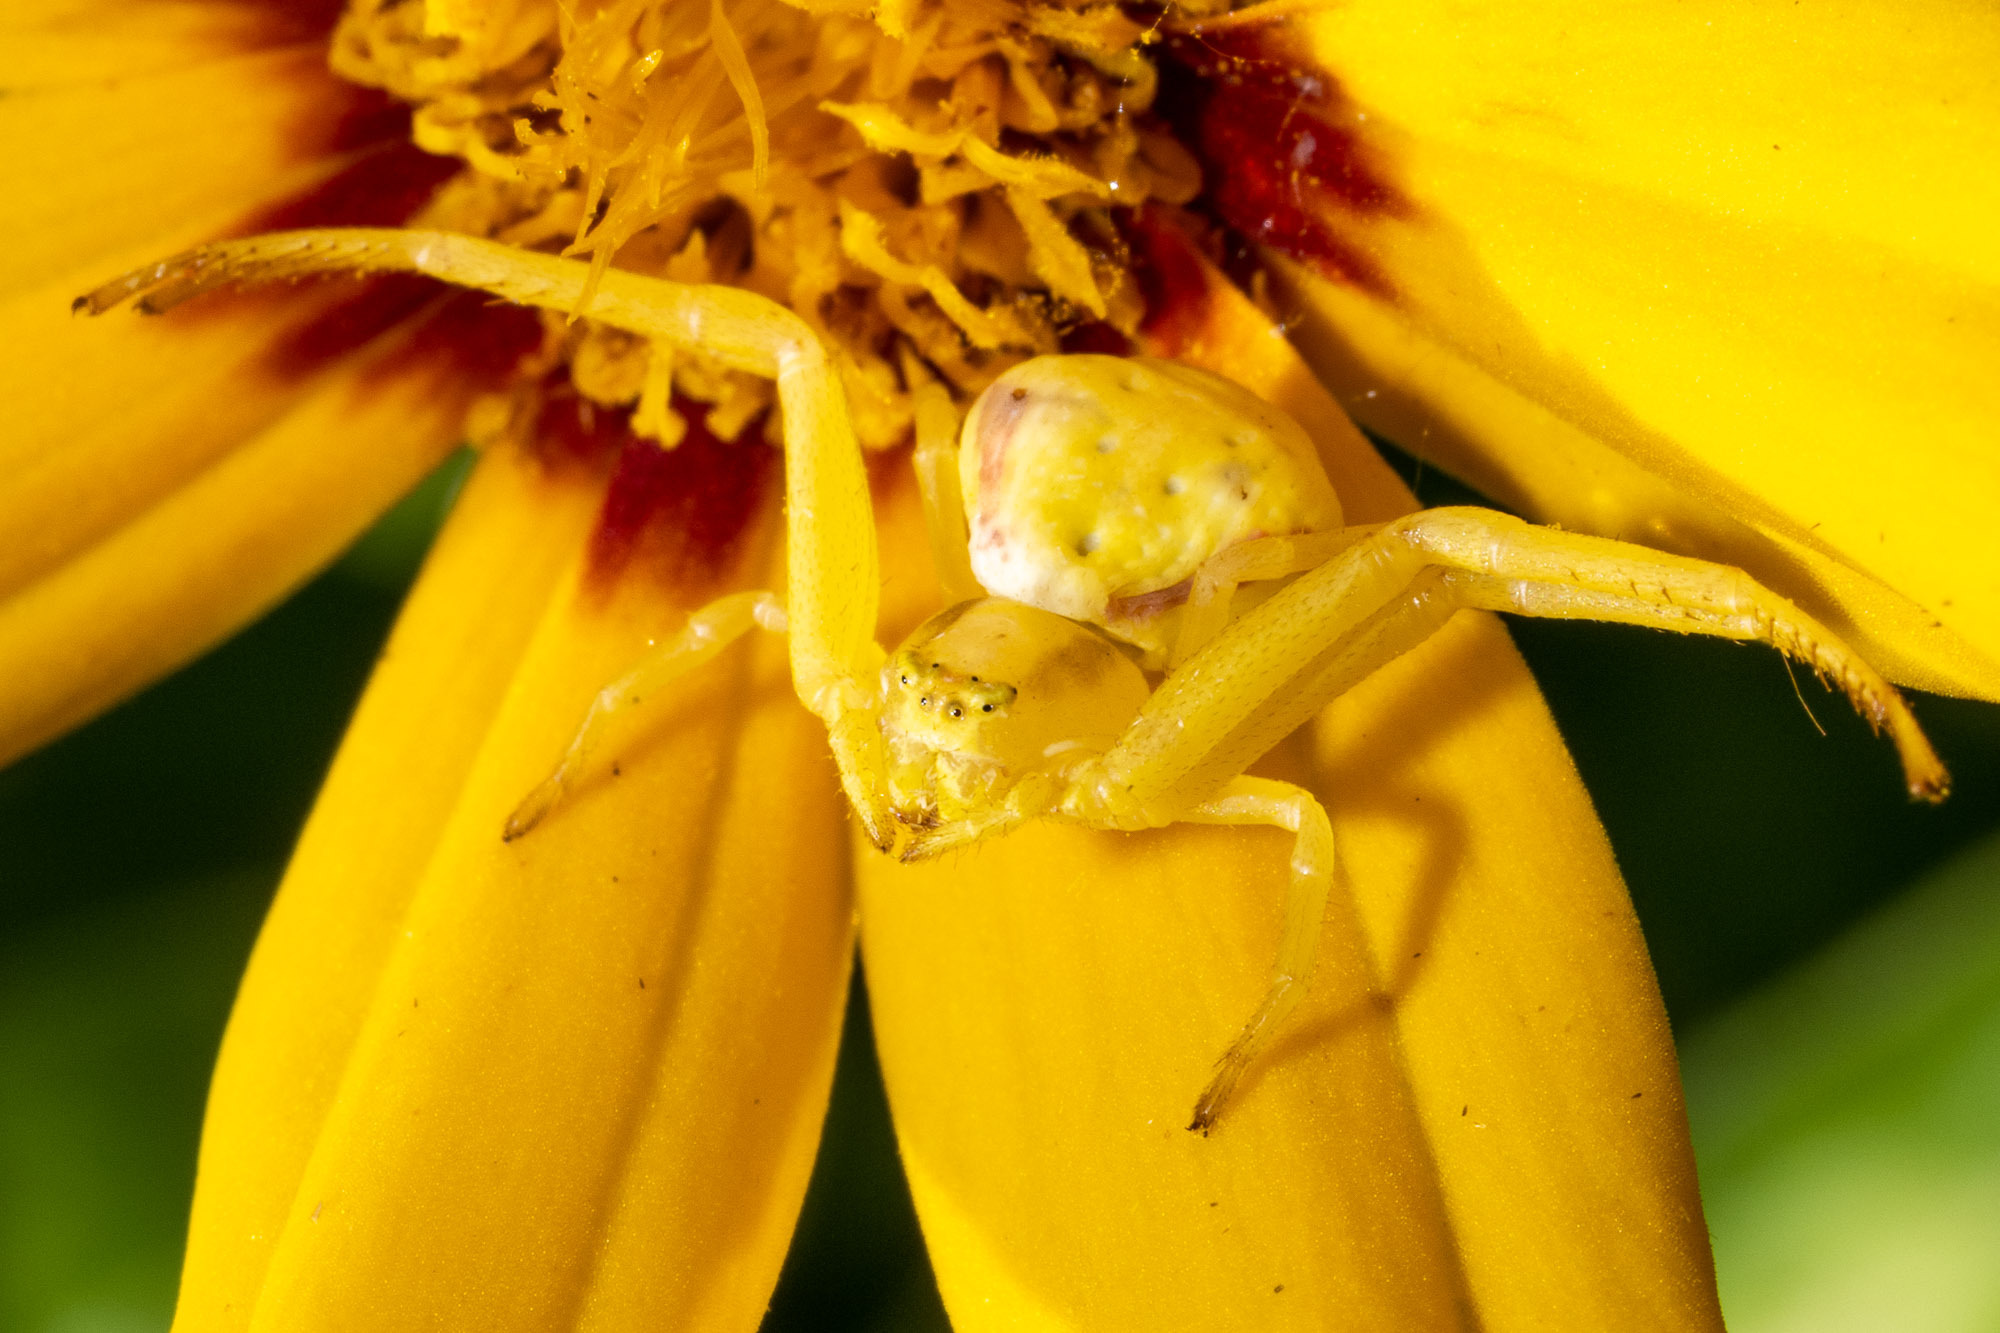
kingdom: Animalia
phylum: Arthropoda
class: Arachnida
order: Araneae
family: Thomisidae
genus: Misumena
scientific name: Misumena vatia
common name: Goldenrod crab spider
